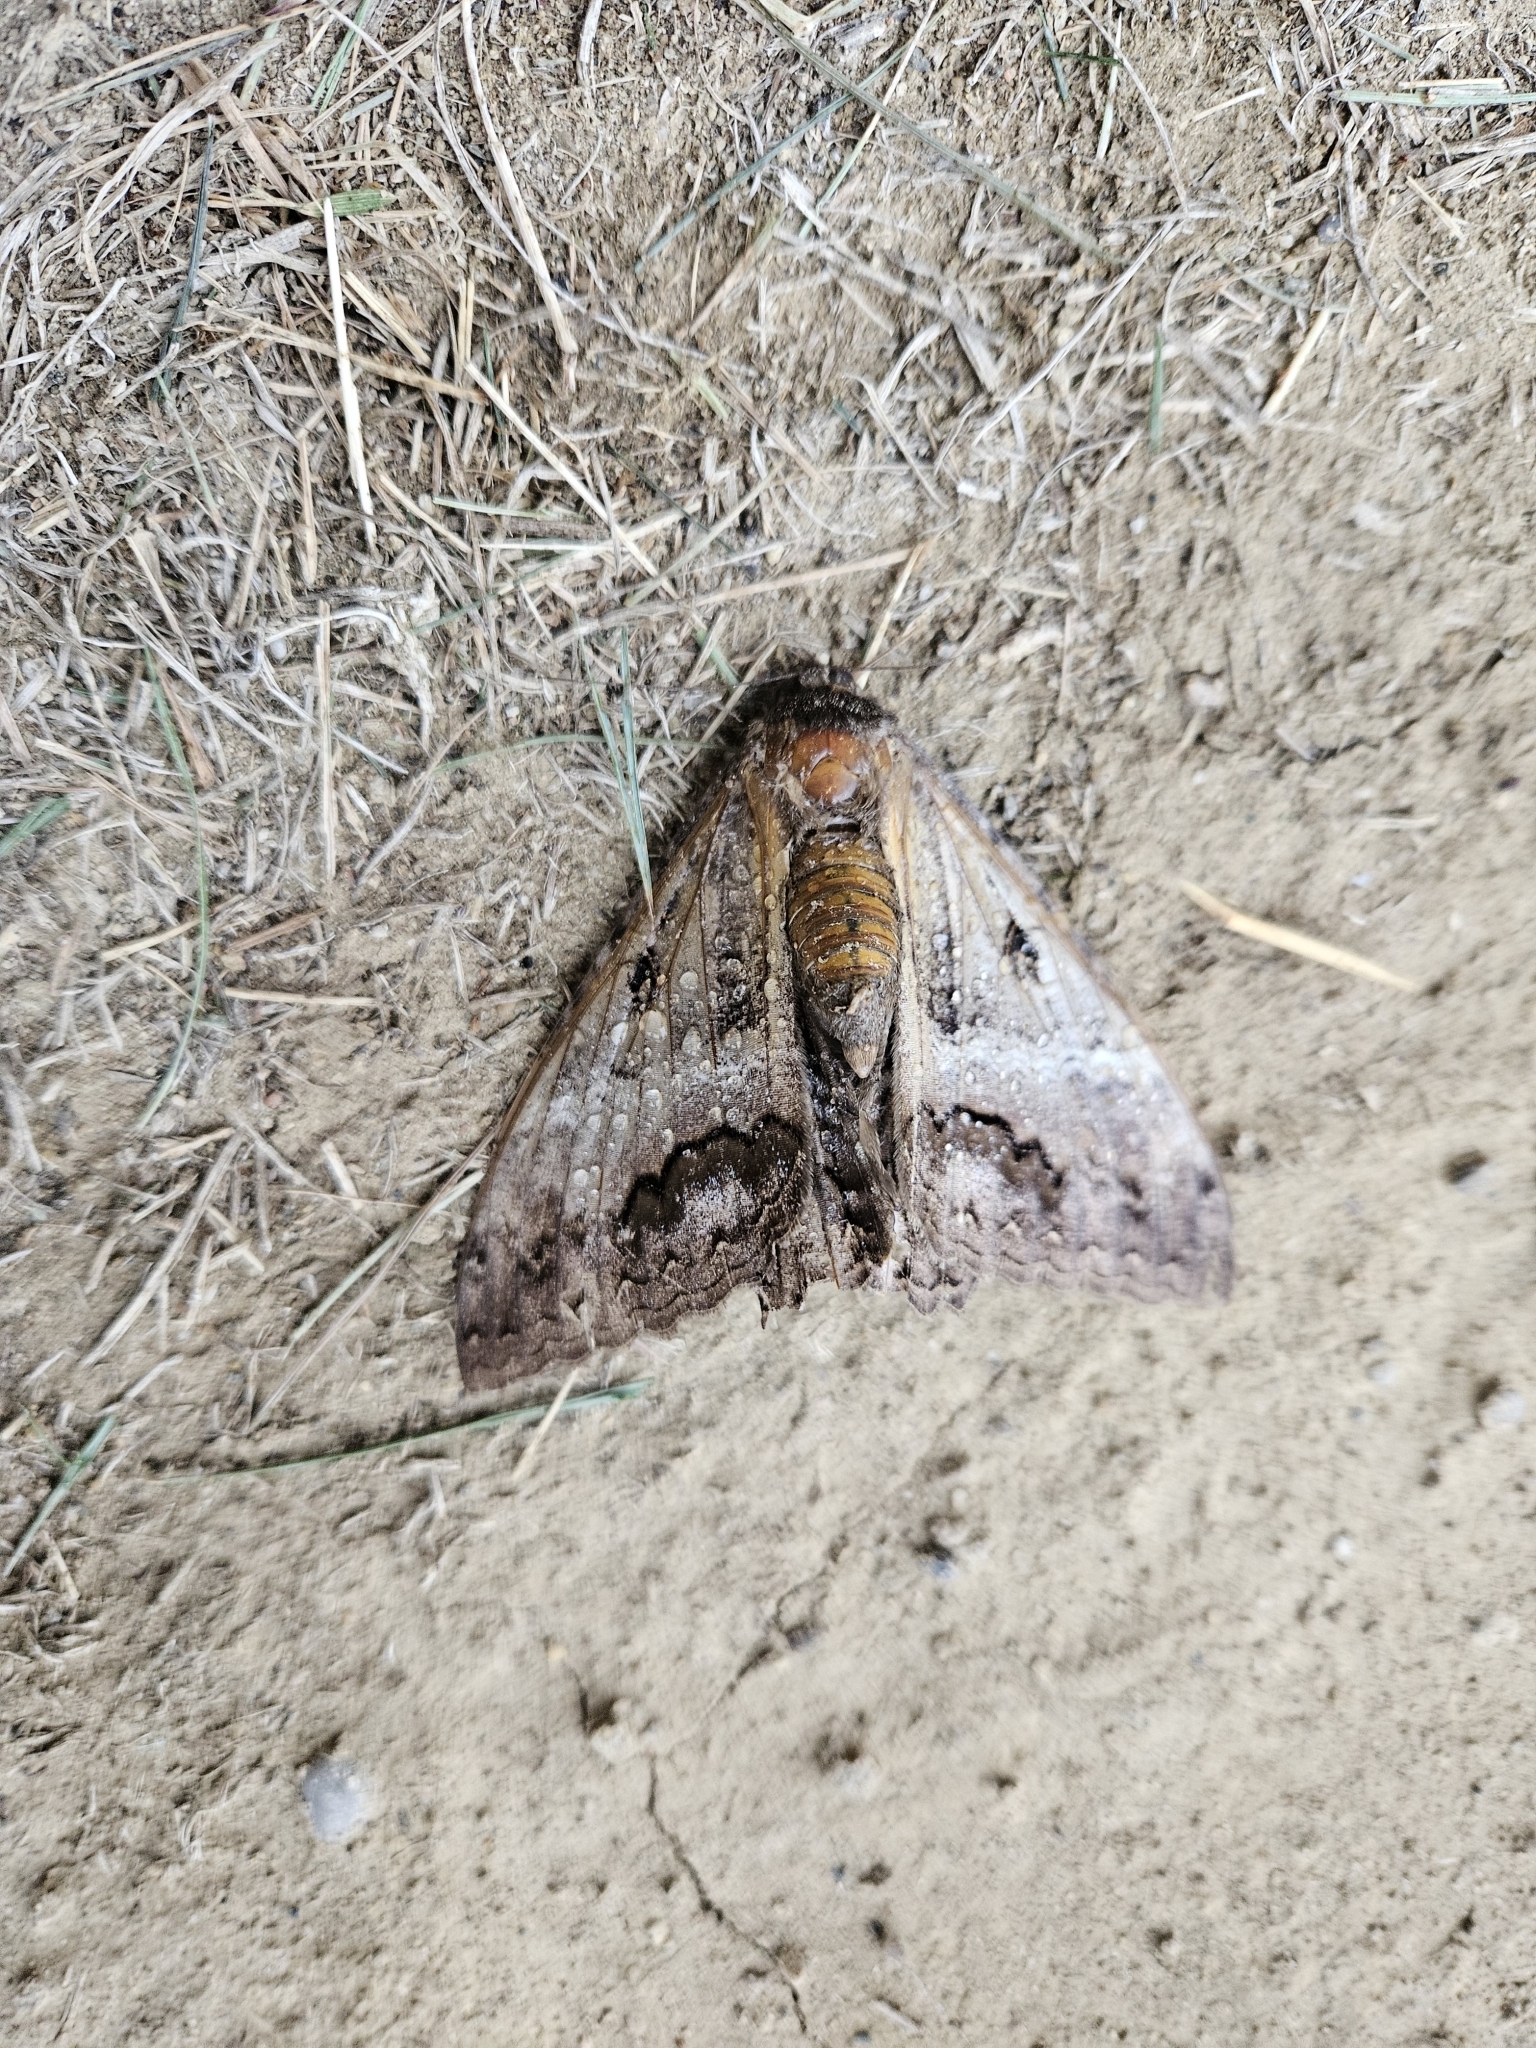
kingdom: Animalia
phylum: Arthropoda
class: Insecta
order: Lepidoptera
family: Erebidae
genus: Ascalapha
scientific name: Ascalapha odorata
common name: Black witch
